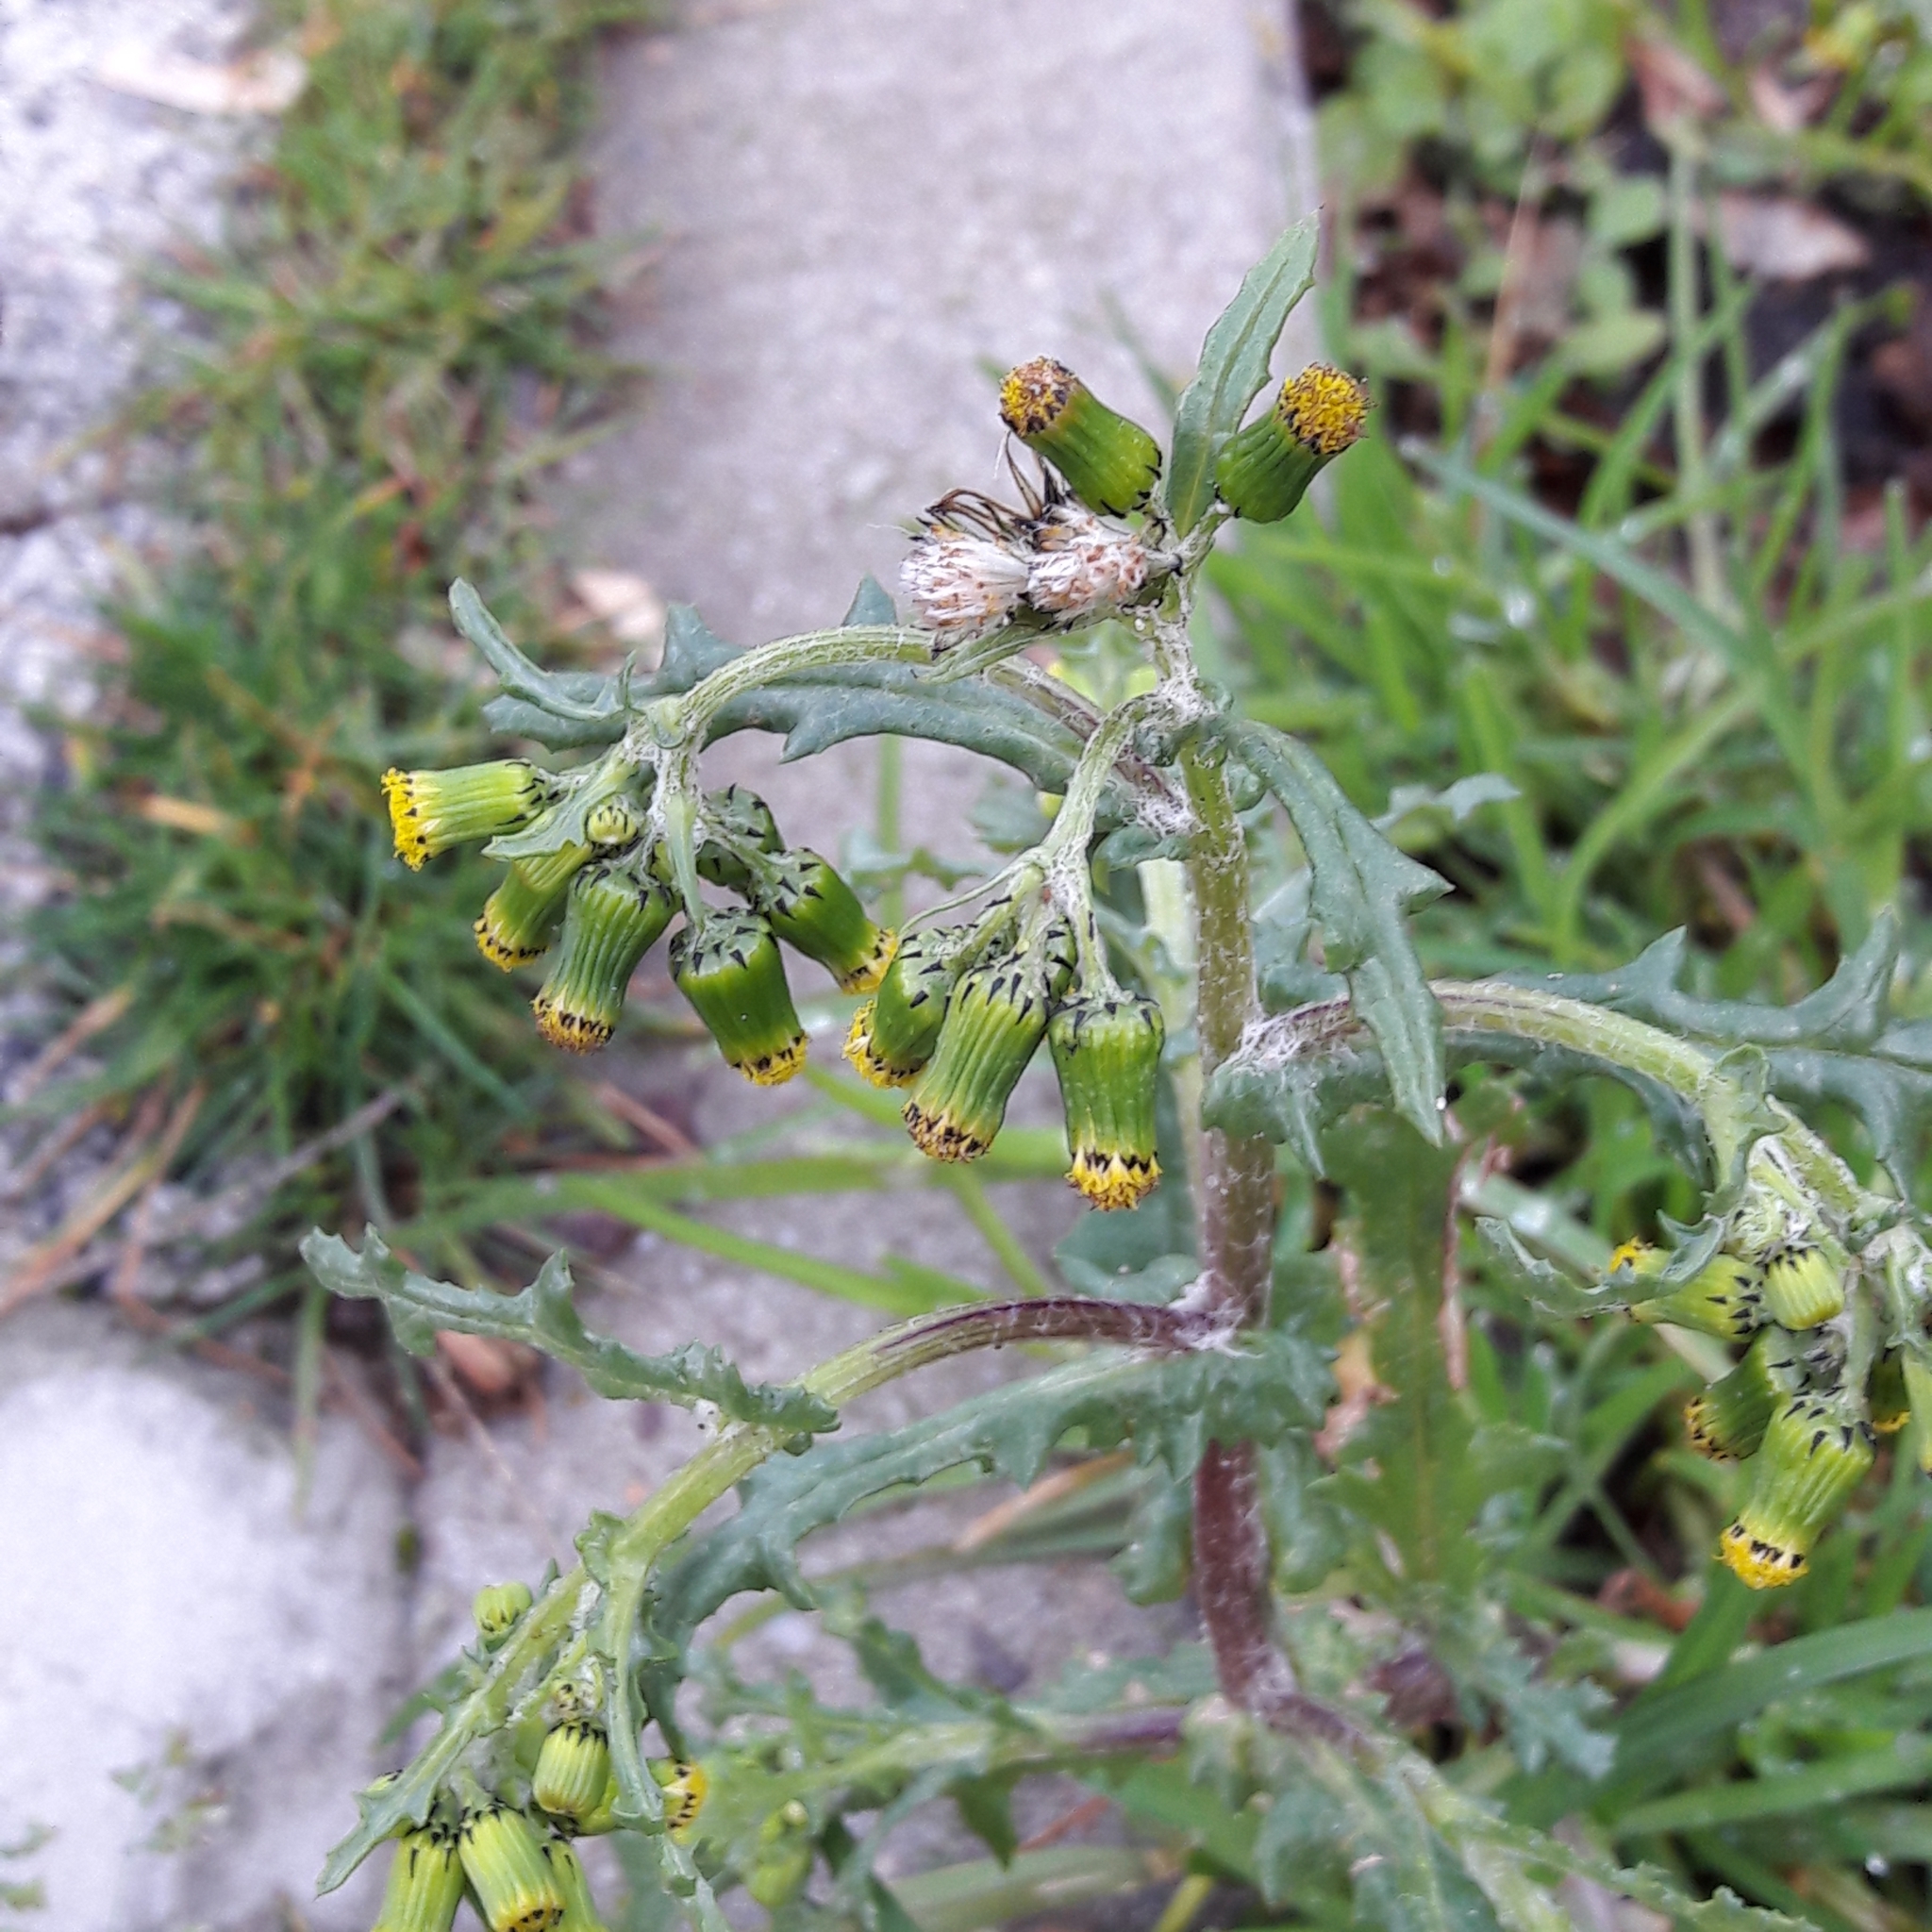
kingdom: Plantae
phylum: Tracheophyta
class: Magnoliopsida
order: Asterales
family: Asteraceae
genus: Senecio
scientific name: Senecio vulgaris
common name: Old-man-in-the-spring
